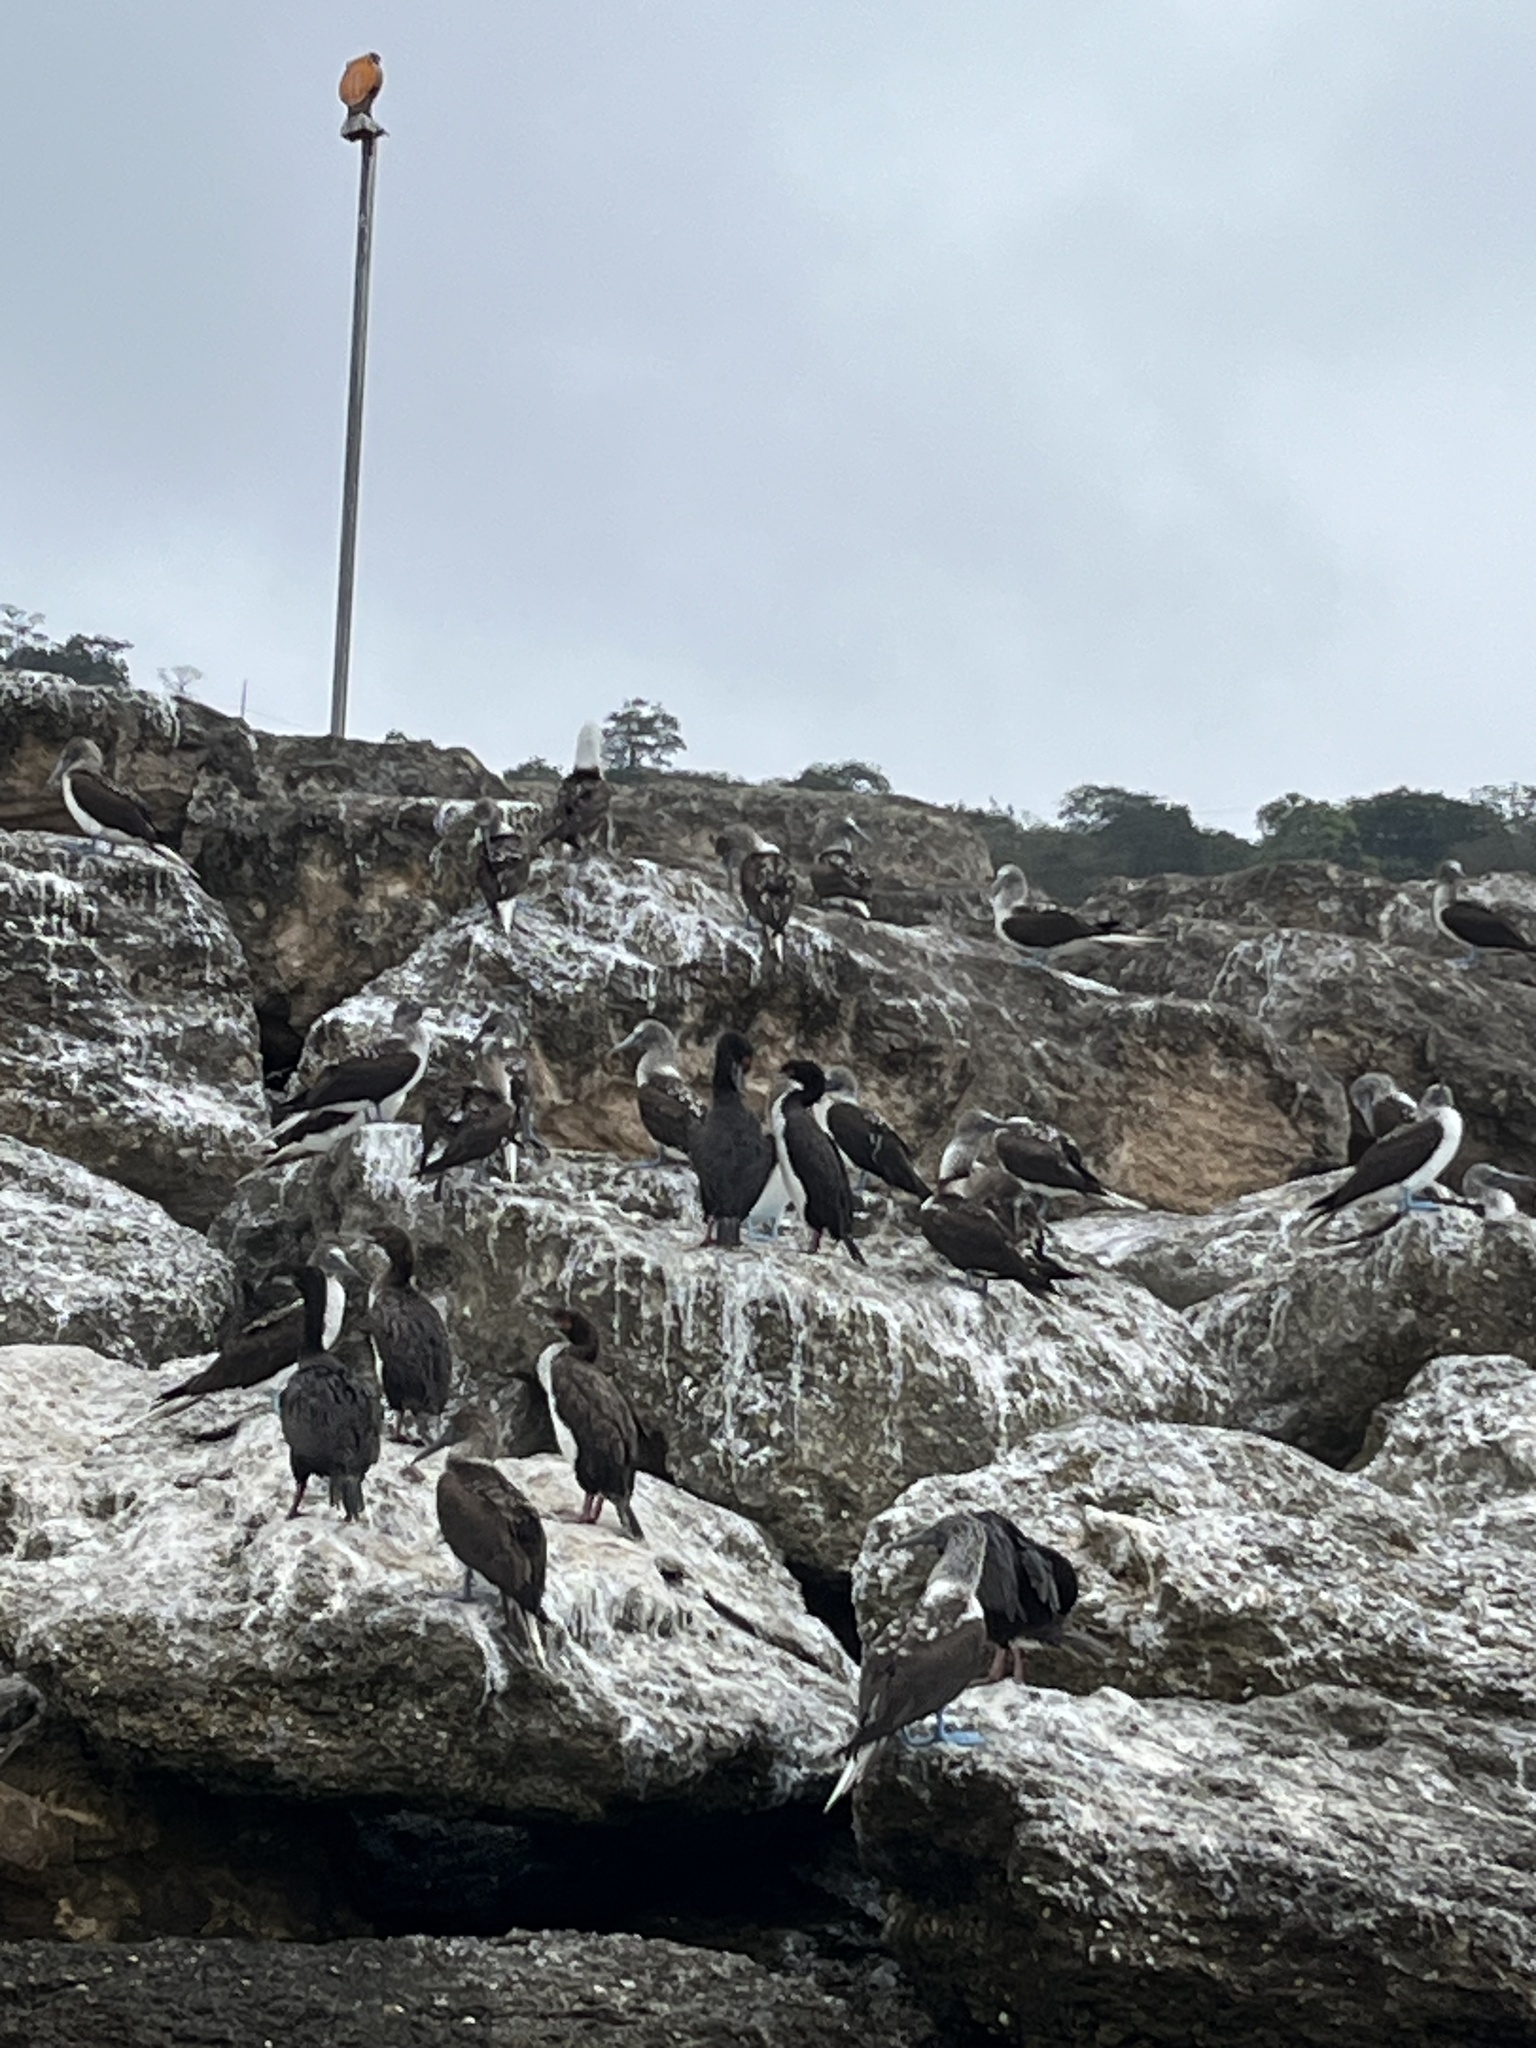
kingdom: Animalia
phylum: Chordata
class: Aves
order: Suliformes
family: Phalacrocoracidae
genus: Leucocarbo
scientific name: Leucocarbo bougainvillii
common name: Guanay cormorant
